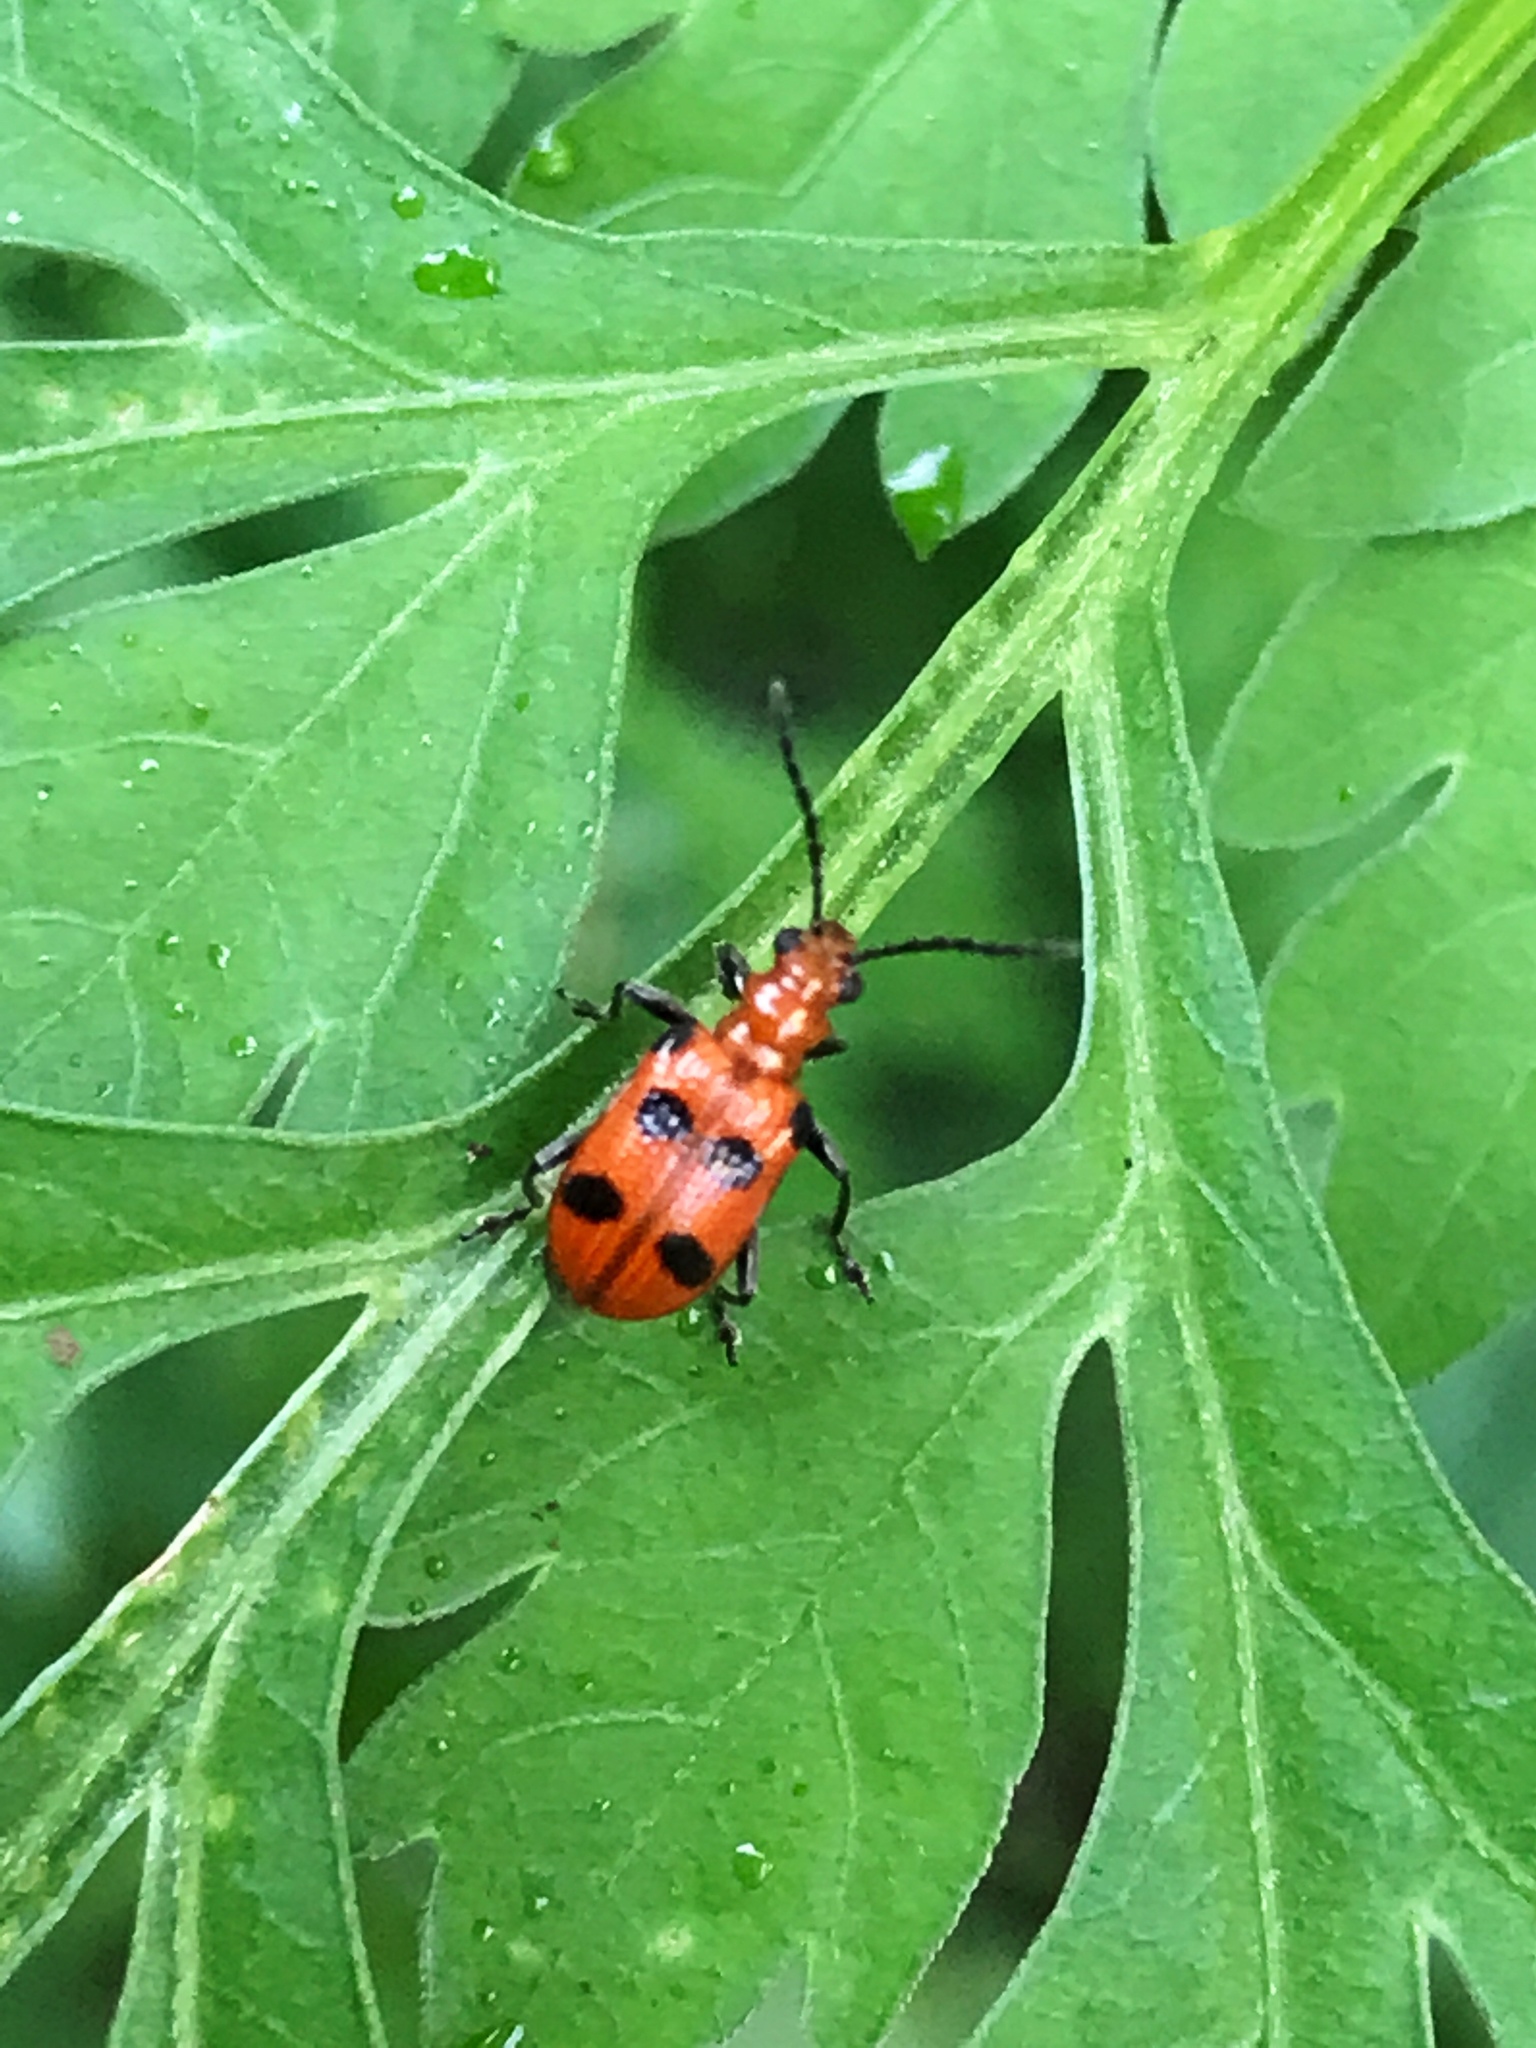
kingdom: Animalia
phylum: Arthropoda
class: Insecta
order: Coleoptera
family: Chrysomelidae
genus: Neolema
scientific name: Neolema sexpunctata
